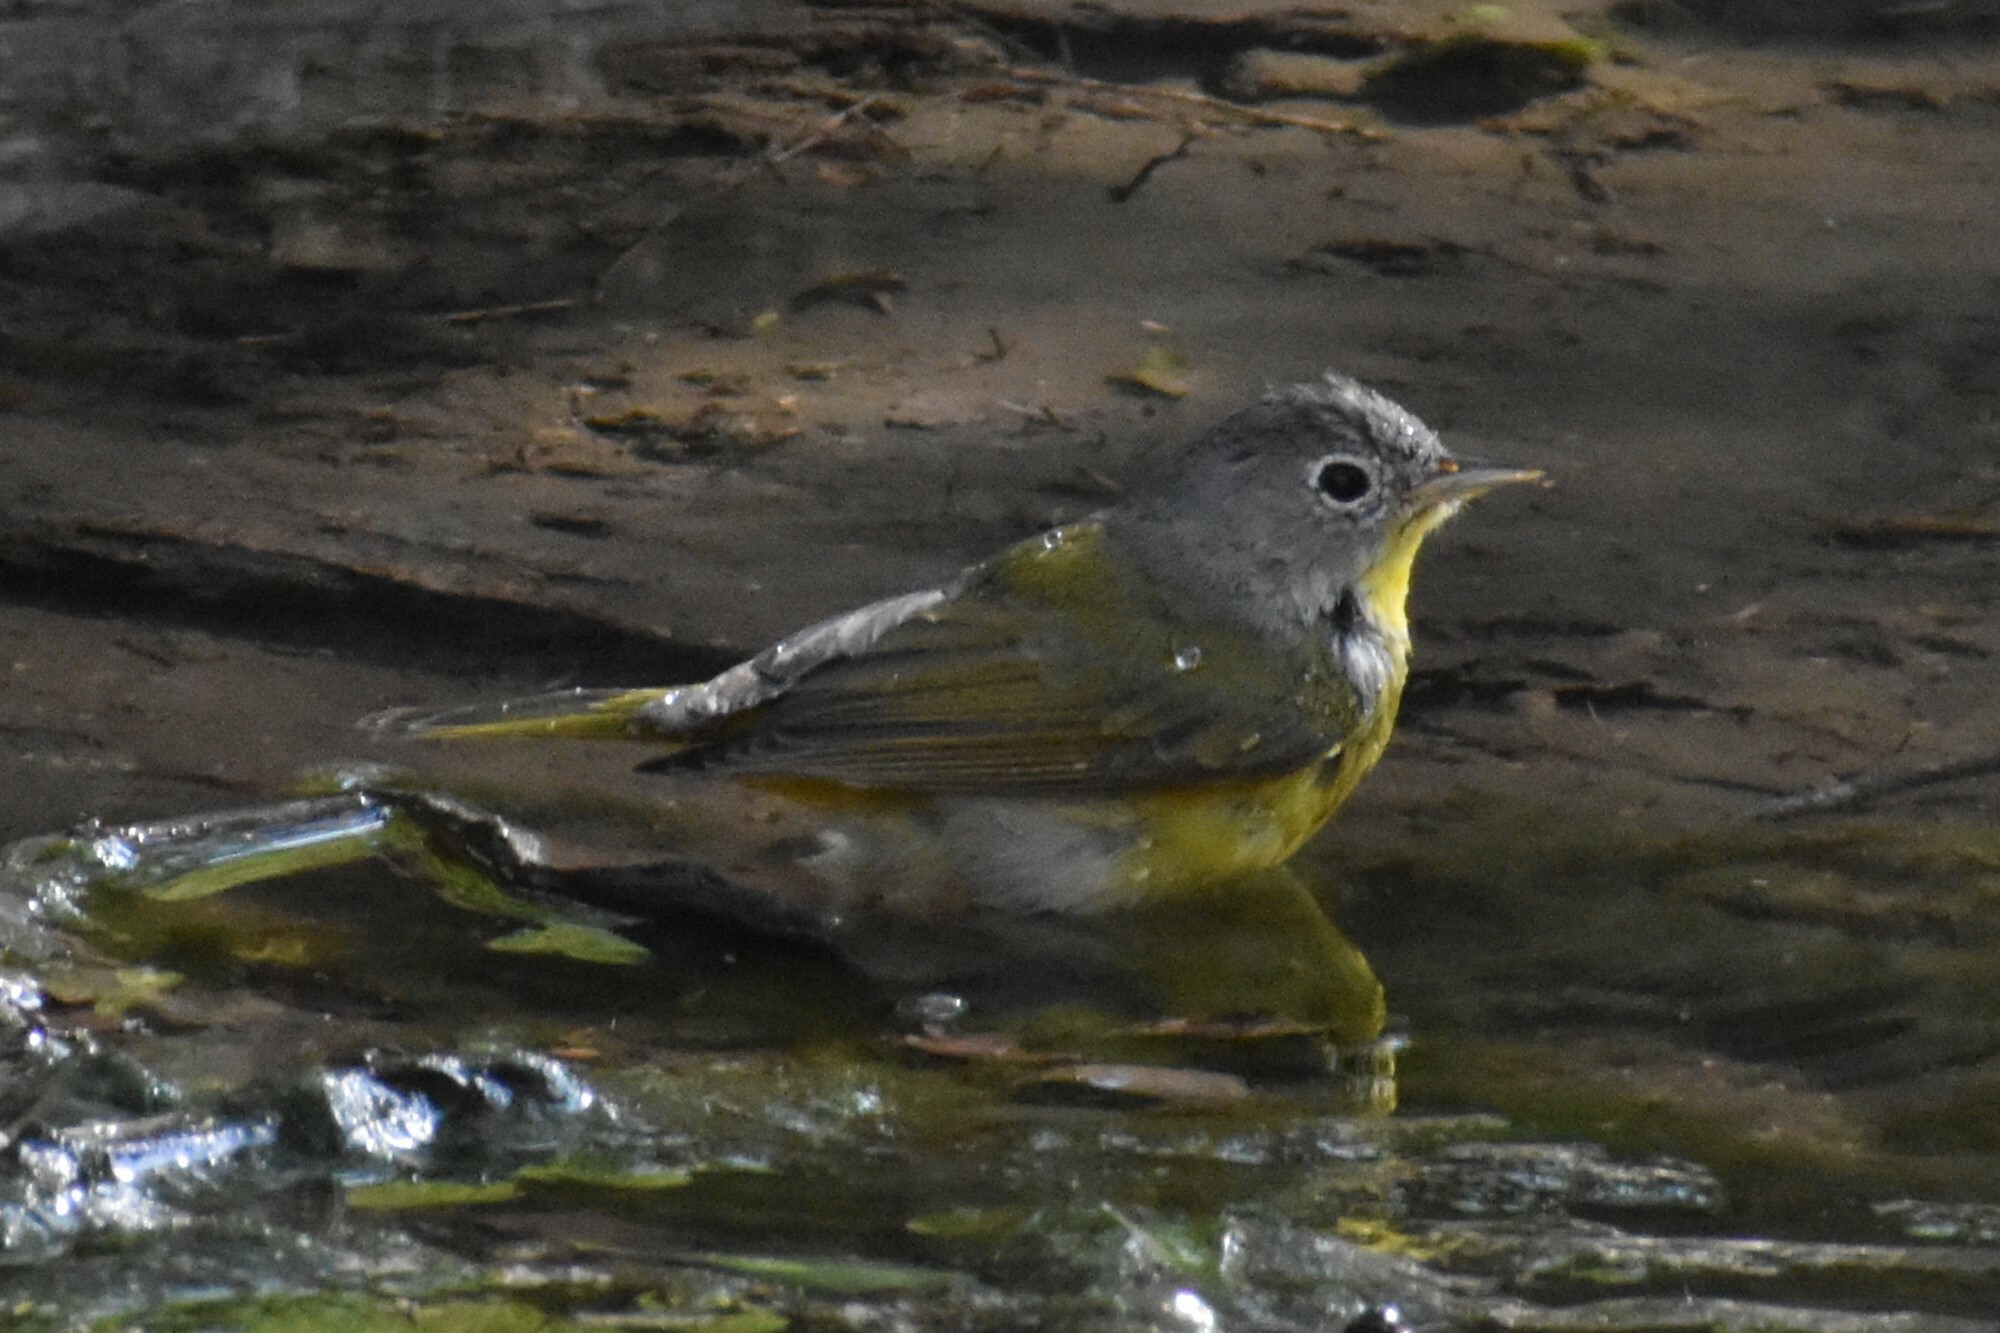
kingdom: Animalia
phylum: Chordata
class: Aves
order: Passeriformes
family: Parulidae
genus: Leiothlypis
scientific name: Leiothlypis ruficapilla
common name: Nashville warbler
